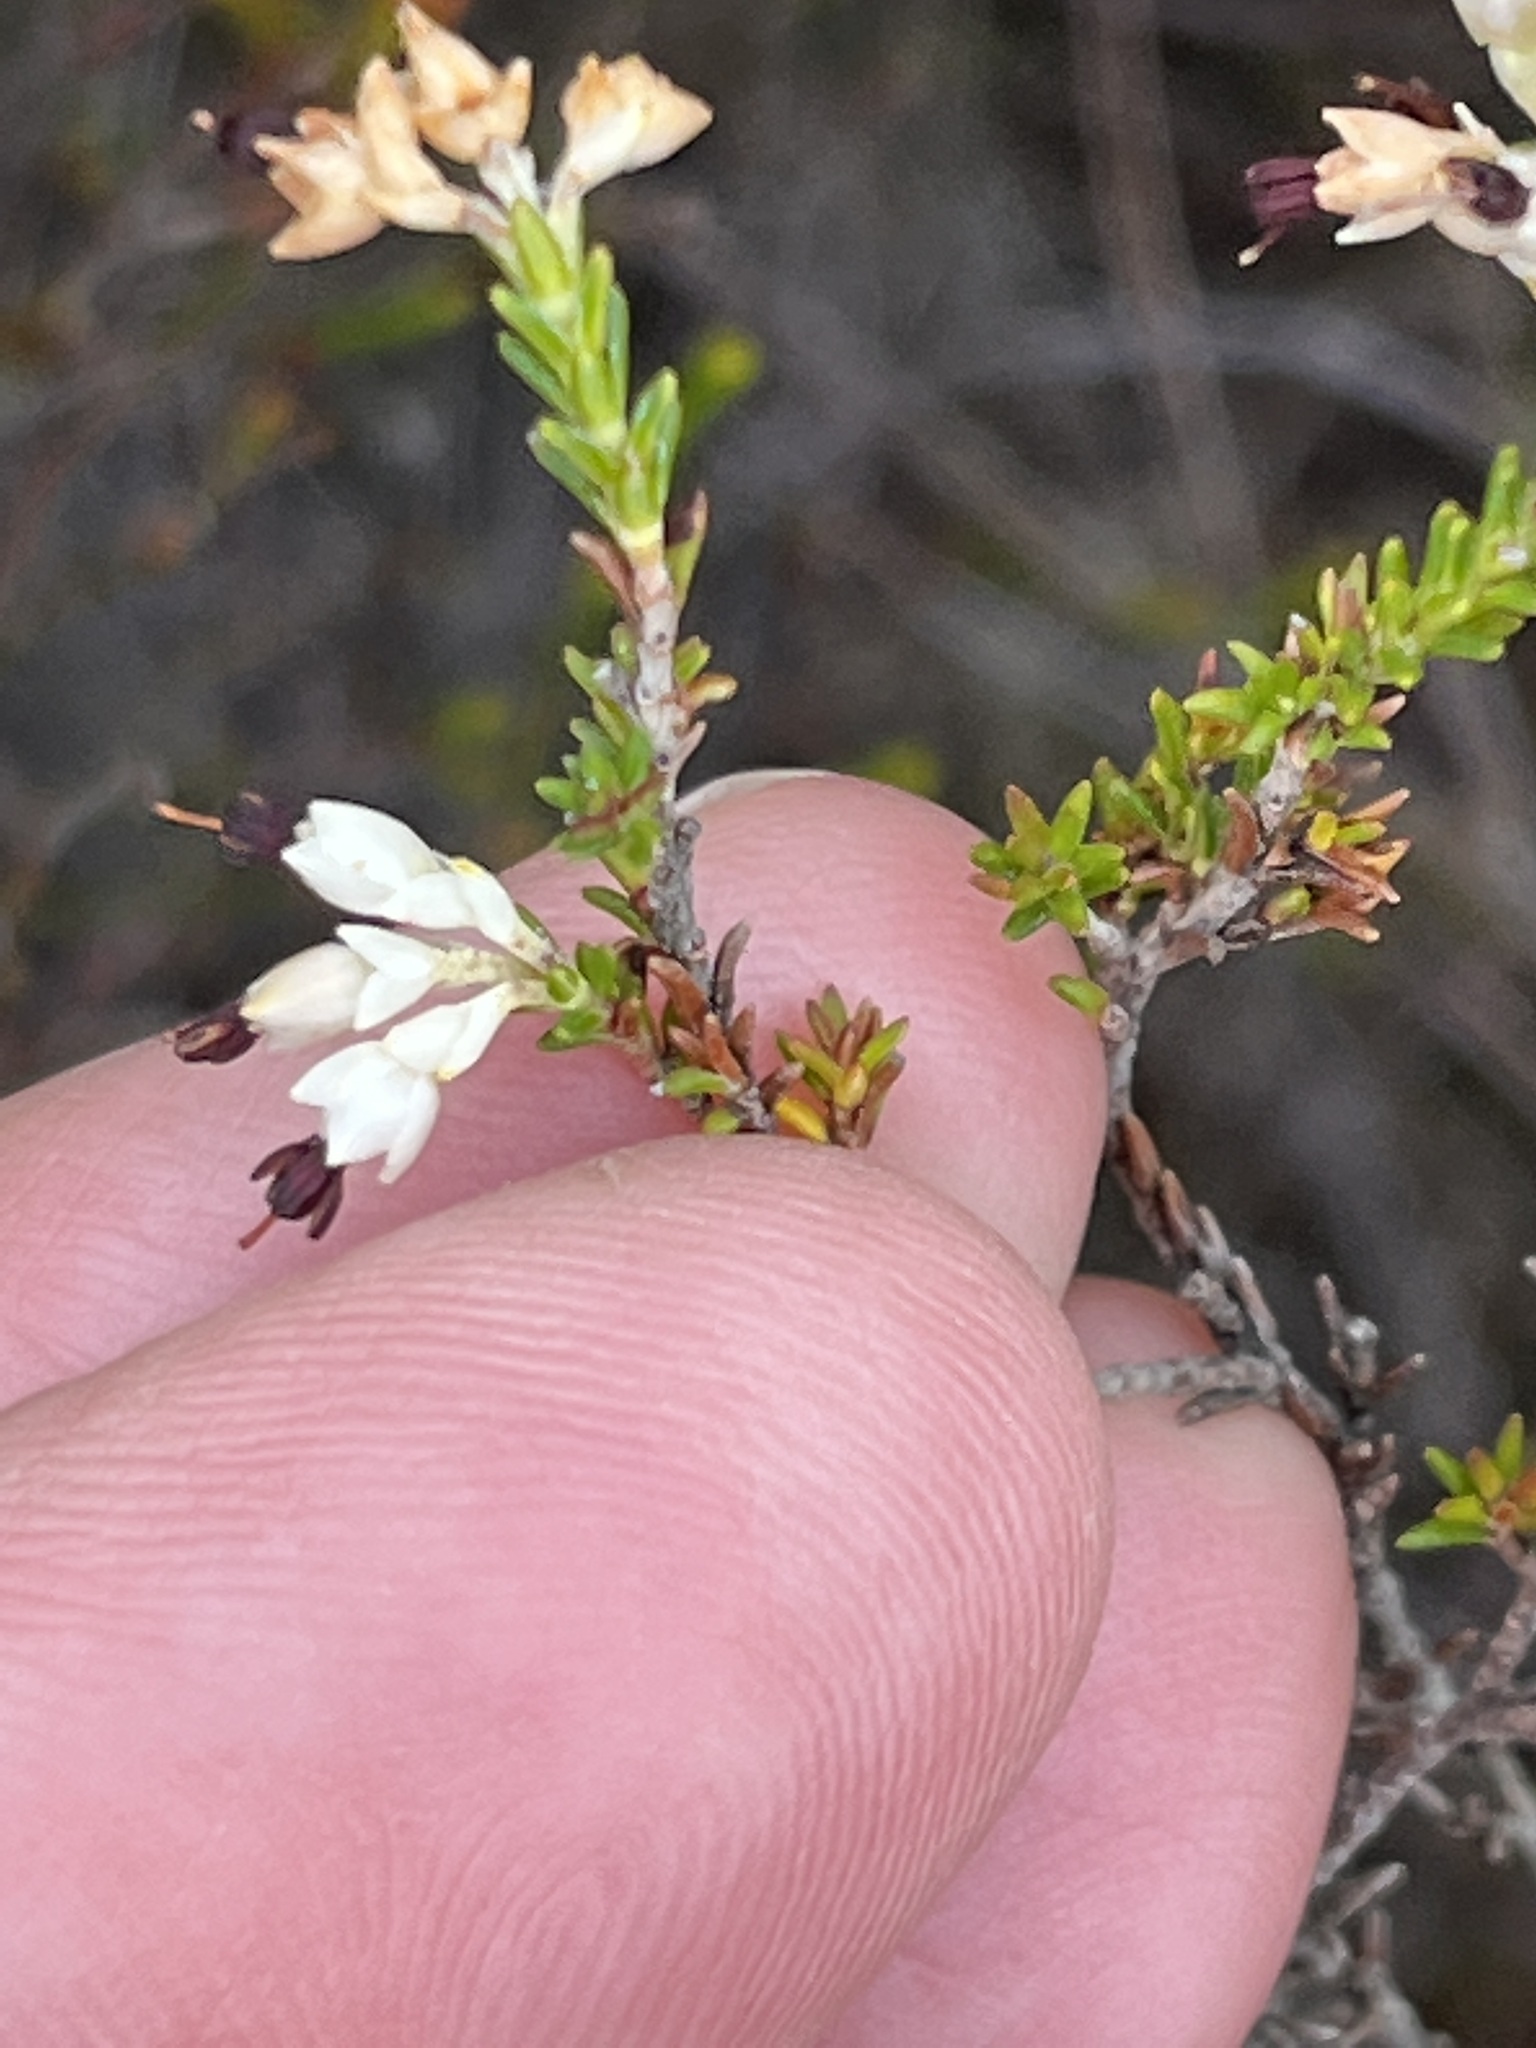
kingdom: Plantae
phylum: Tracheophyta
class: Magnoliopsida
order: Ericales
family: Ericaceae
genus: Erica
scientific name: Erica imbricata
